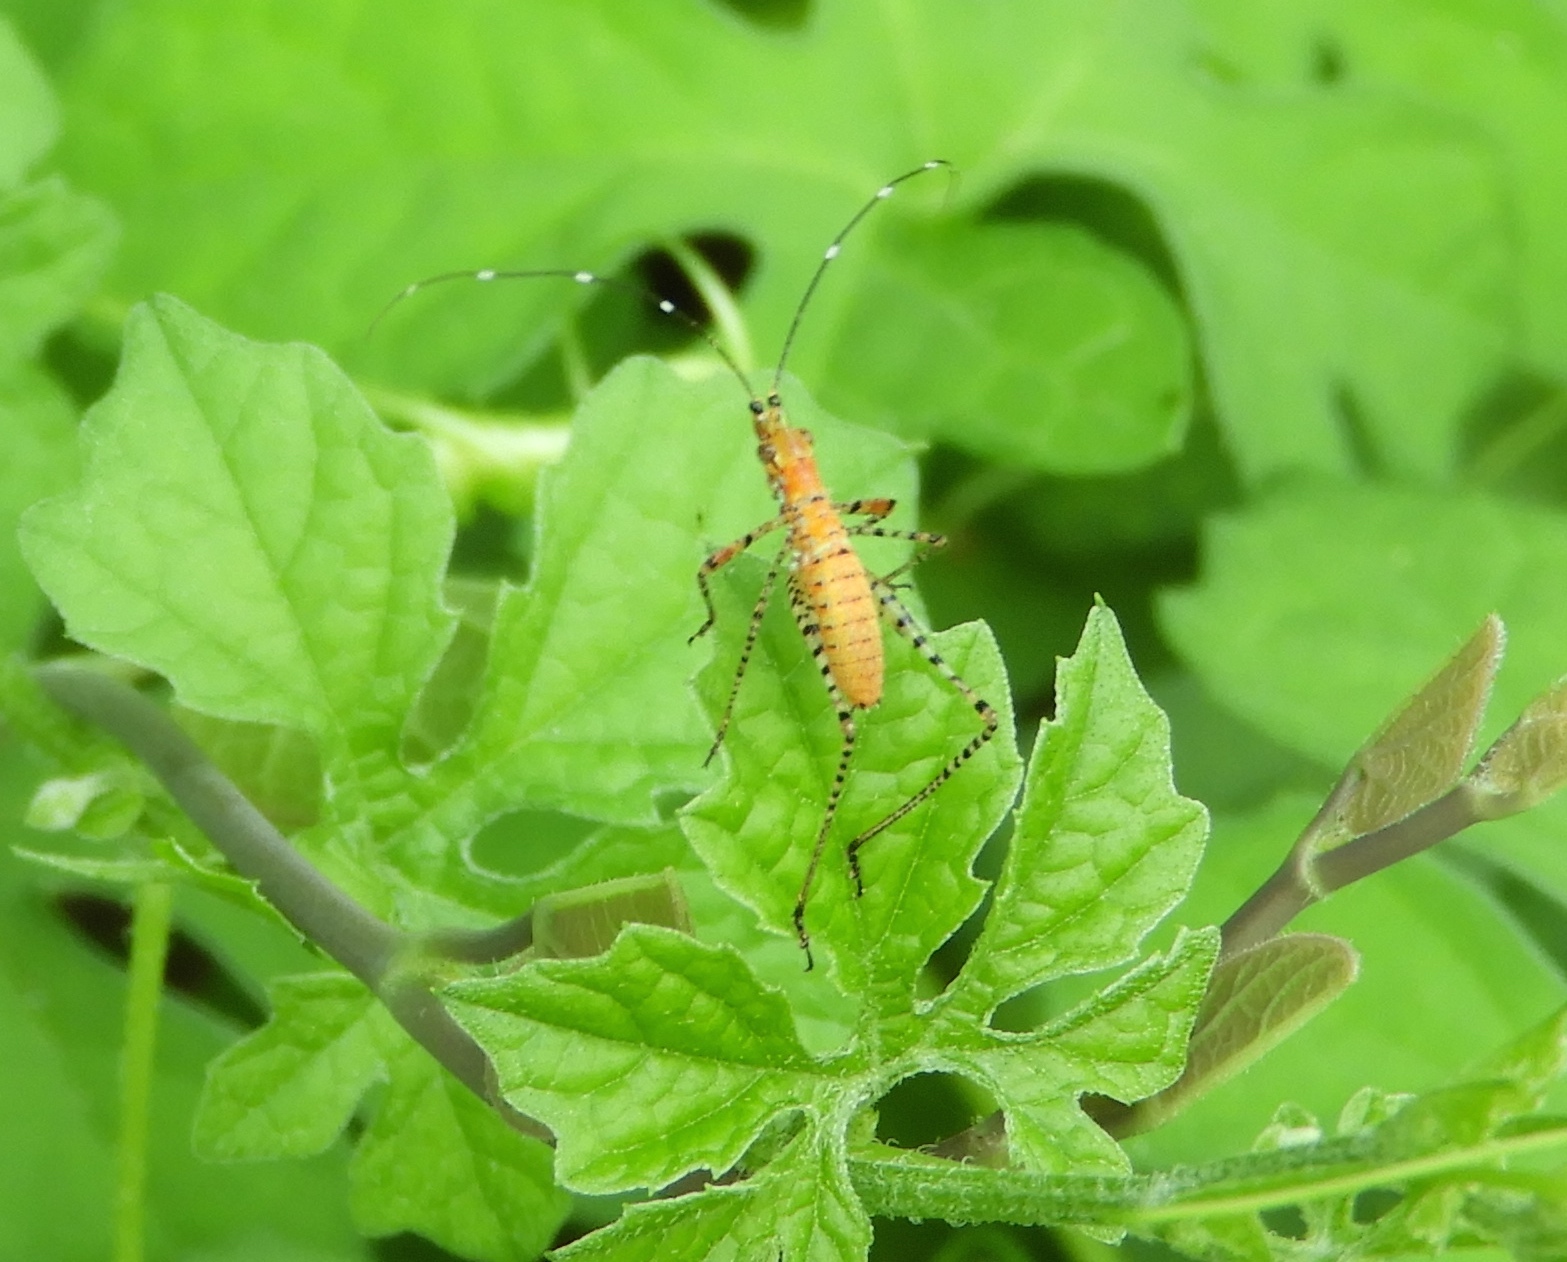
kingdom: Animalia
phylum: Arthropoda
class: Insecta
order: Orthoptera
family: Tettigoniidae
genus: Scudderia
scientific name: Scudderia
